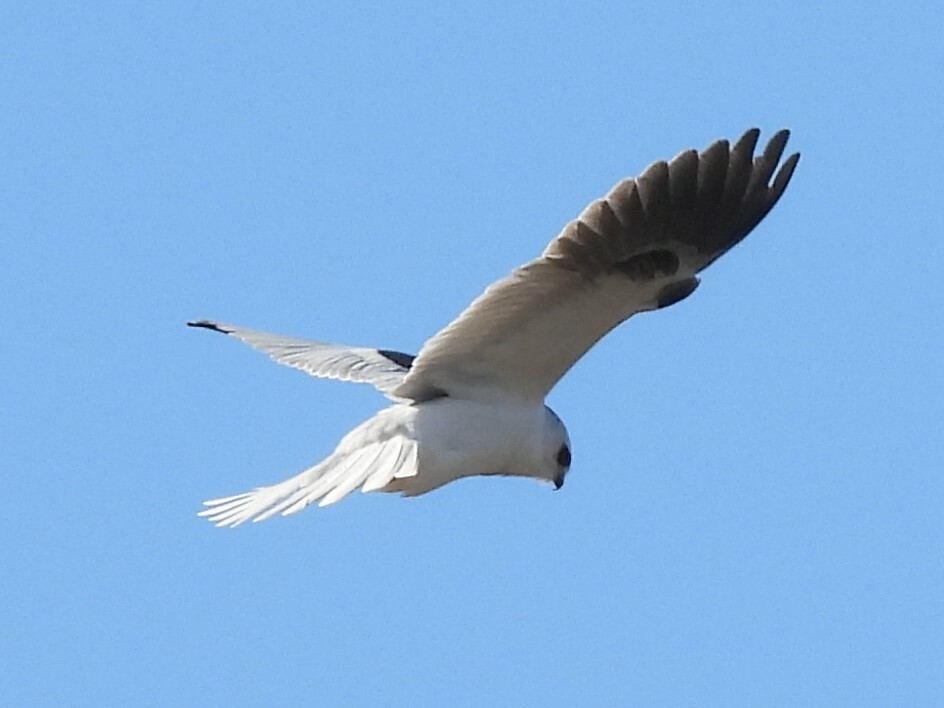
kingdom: Animalia
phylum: Chordata
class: Aves
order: Accipitriformes
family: Accipitridae
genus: Elanus
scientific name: Elanus leucurus
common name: White-tailed kite
